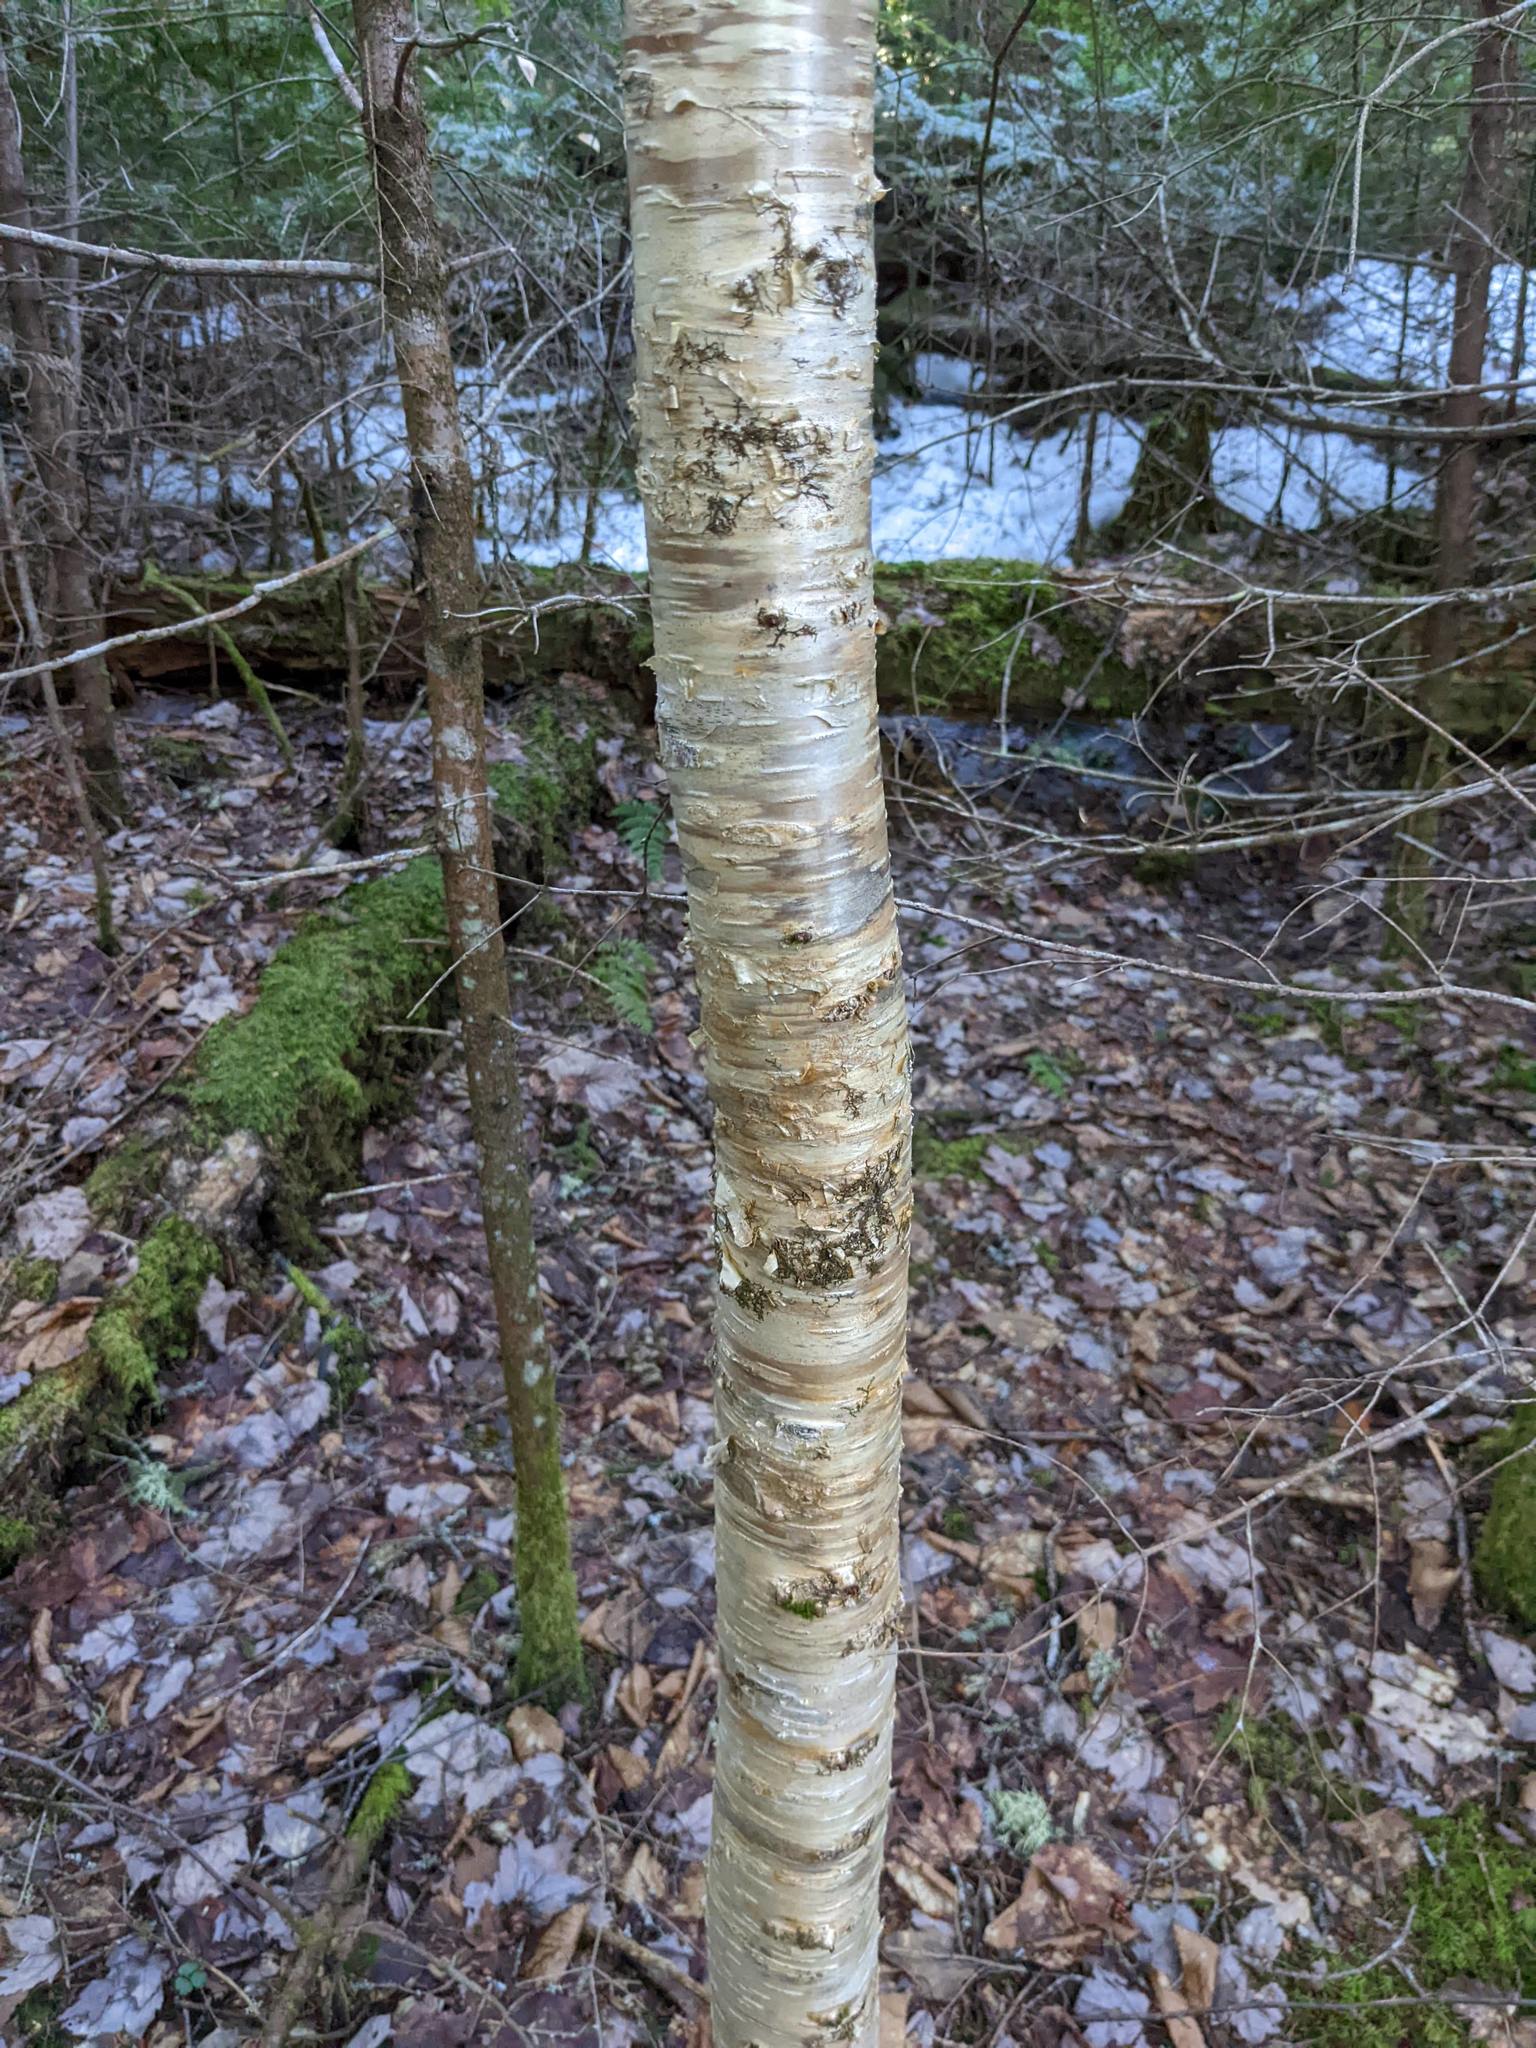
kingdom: Plantae
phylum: Tracheophyta
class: Magnoliopsida
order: Fagales
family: Betulaceae
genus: Betula
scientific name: Betula alleghaniensis
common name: Yellow birch
